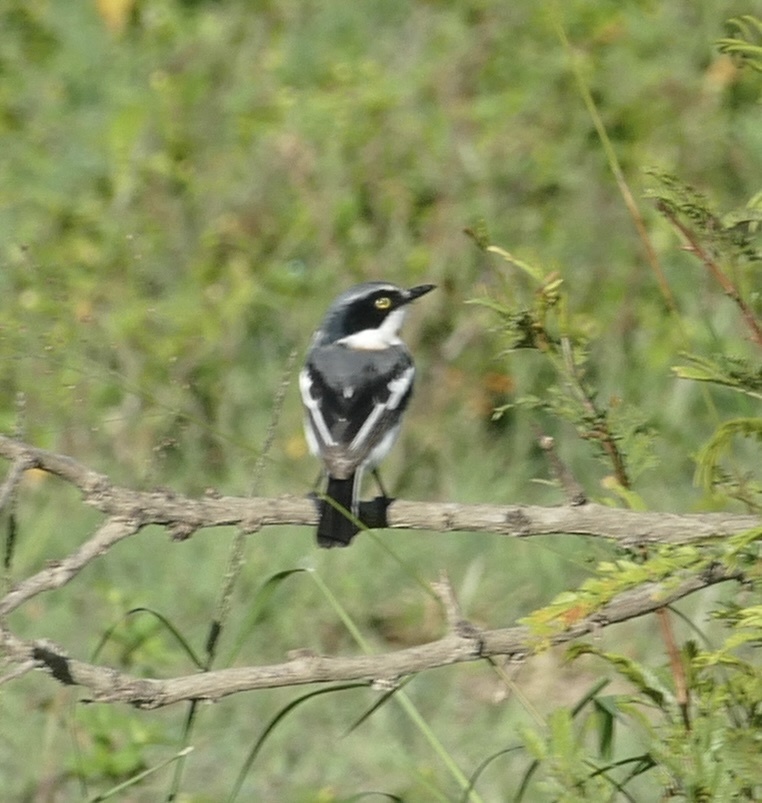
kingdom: Animalia
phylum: Chordata
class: Aves
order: Passeriformes
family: Platysteiridae
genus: Batis
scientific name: Batis molitor
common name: Chinspot batis
